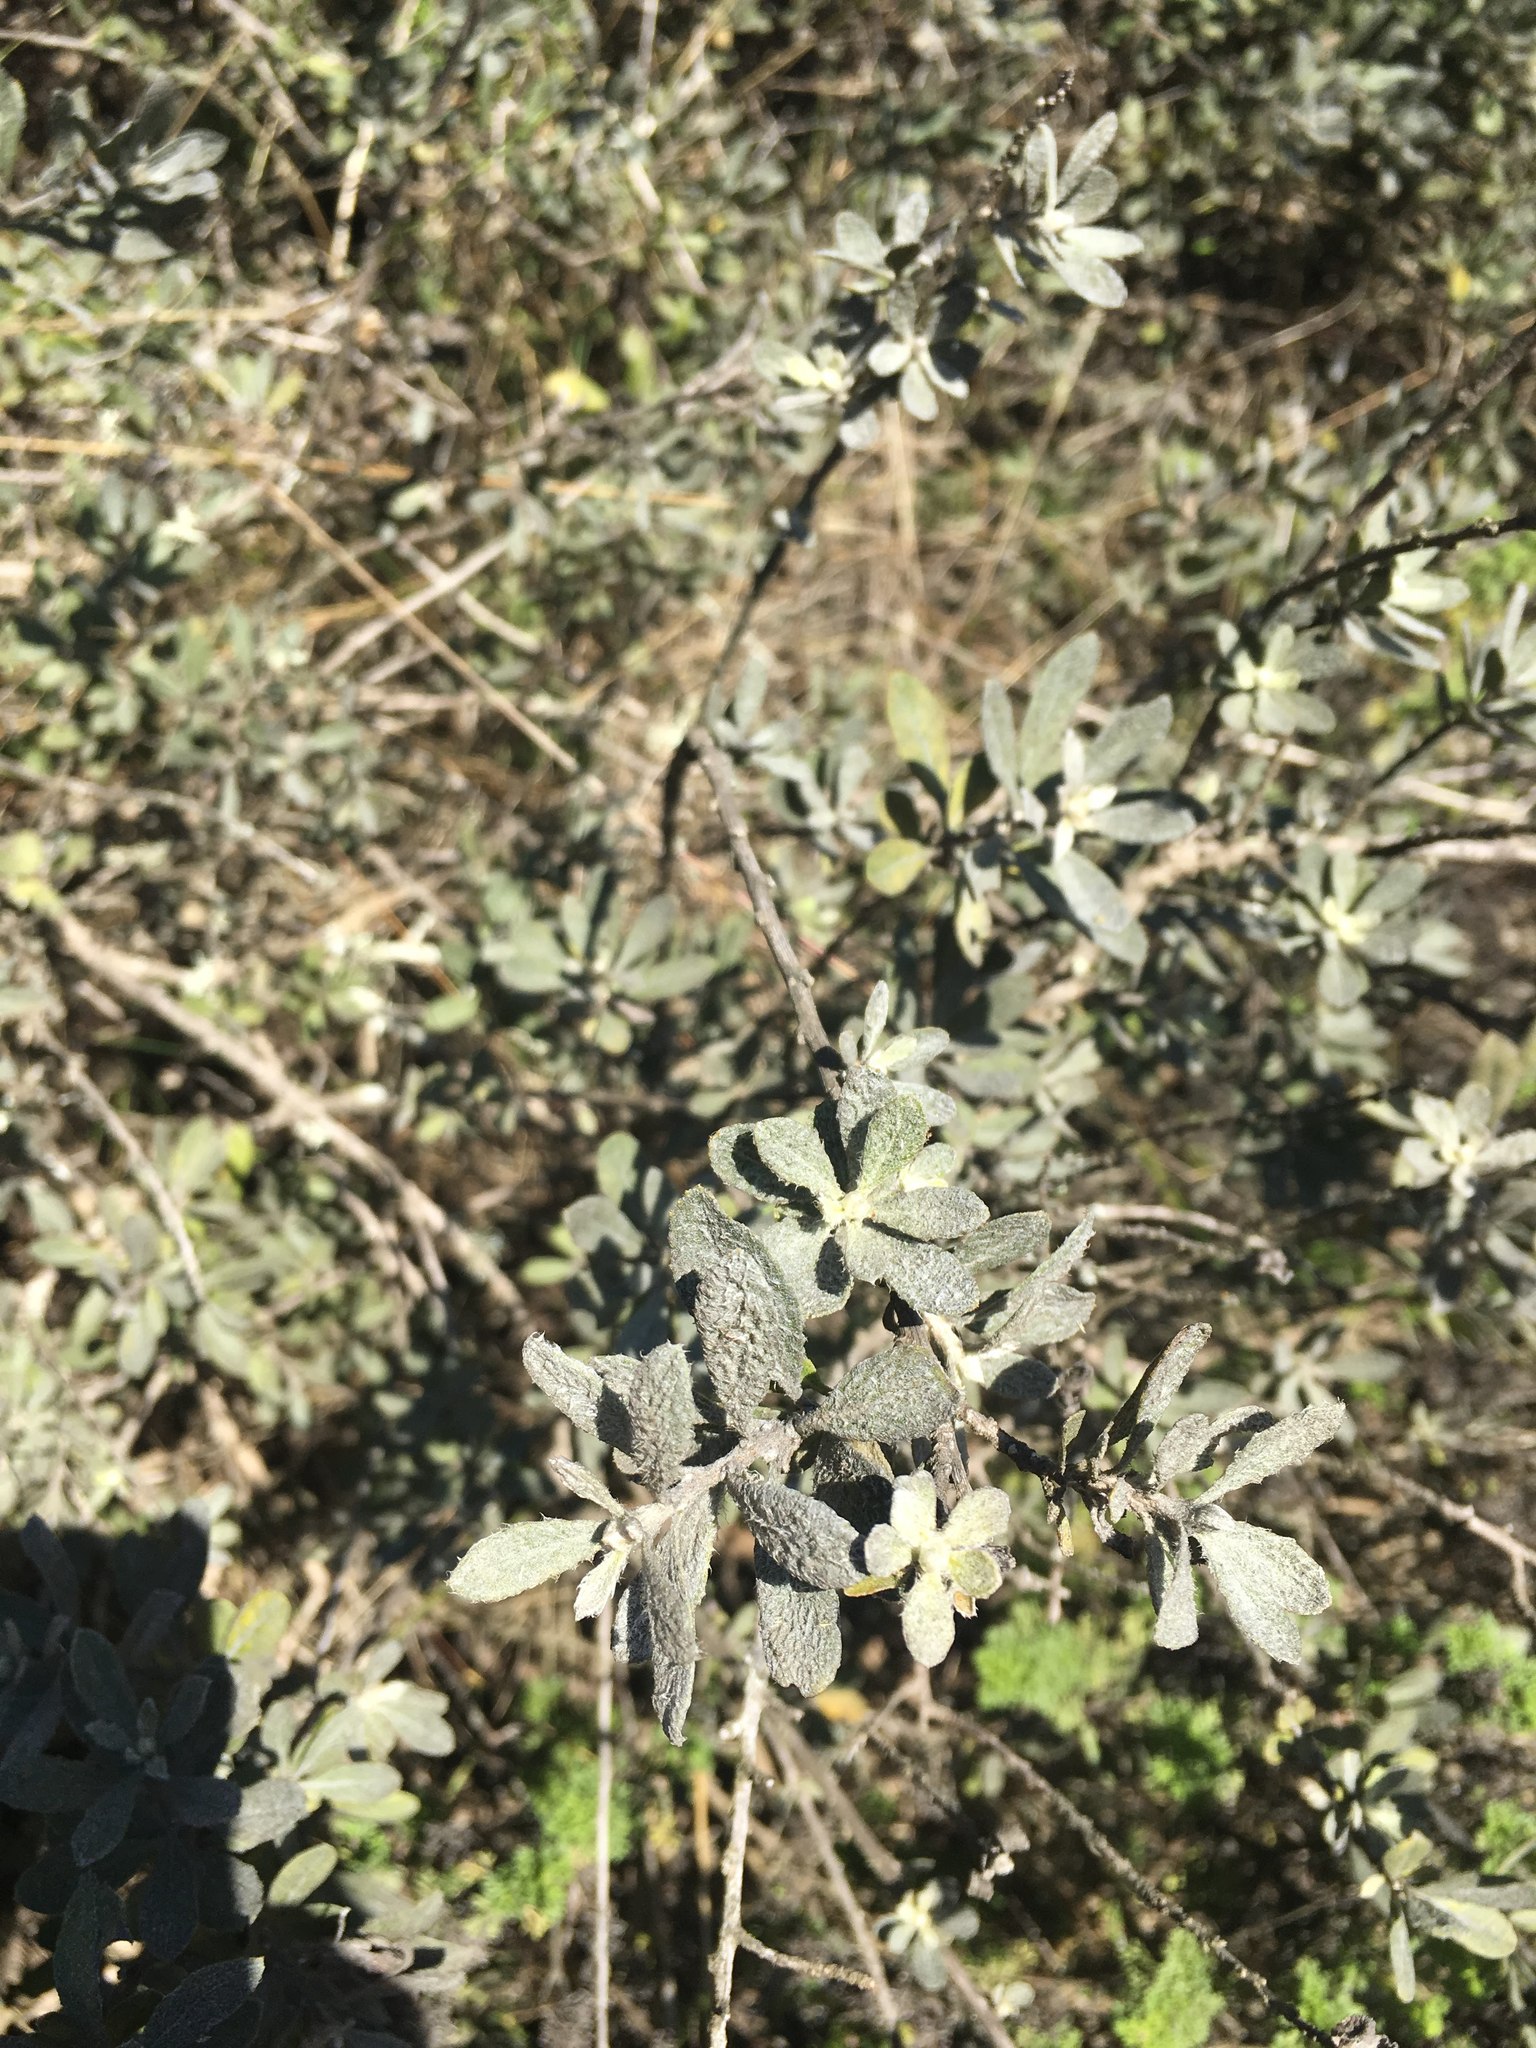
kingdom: Plantae
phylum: Tracheophyta
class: Magnoliopsida
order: Asterales
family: Asteraceae
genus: Gochnatia
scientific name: Gochnatia foliolosa
